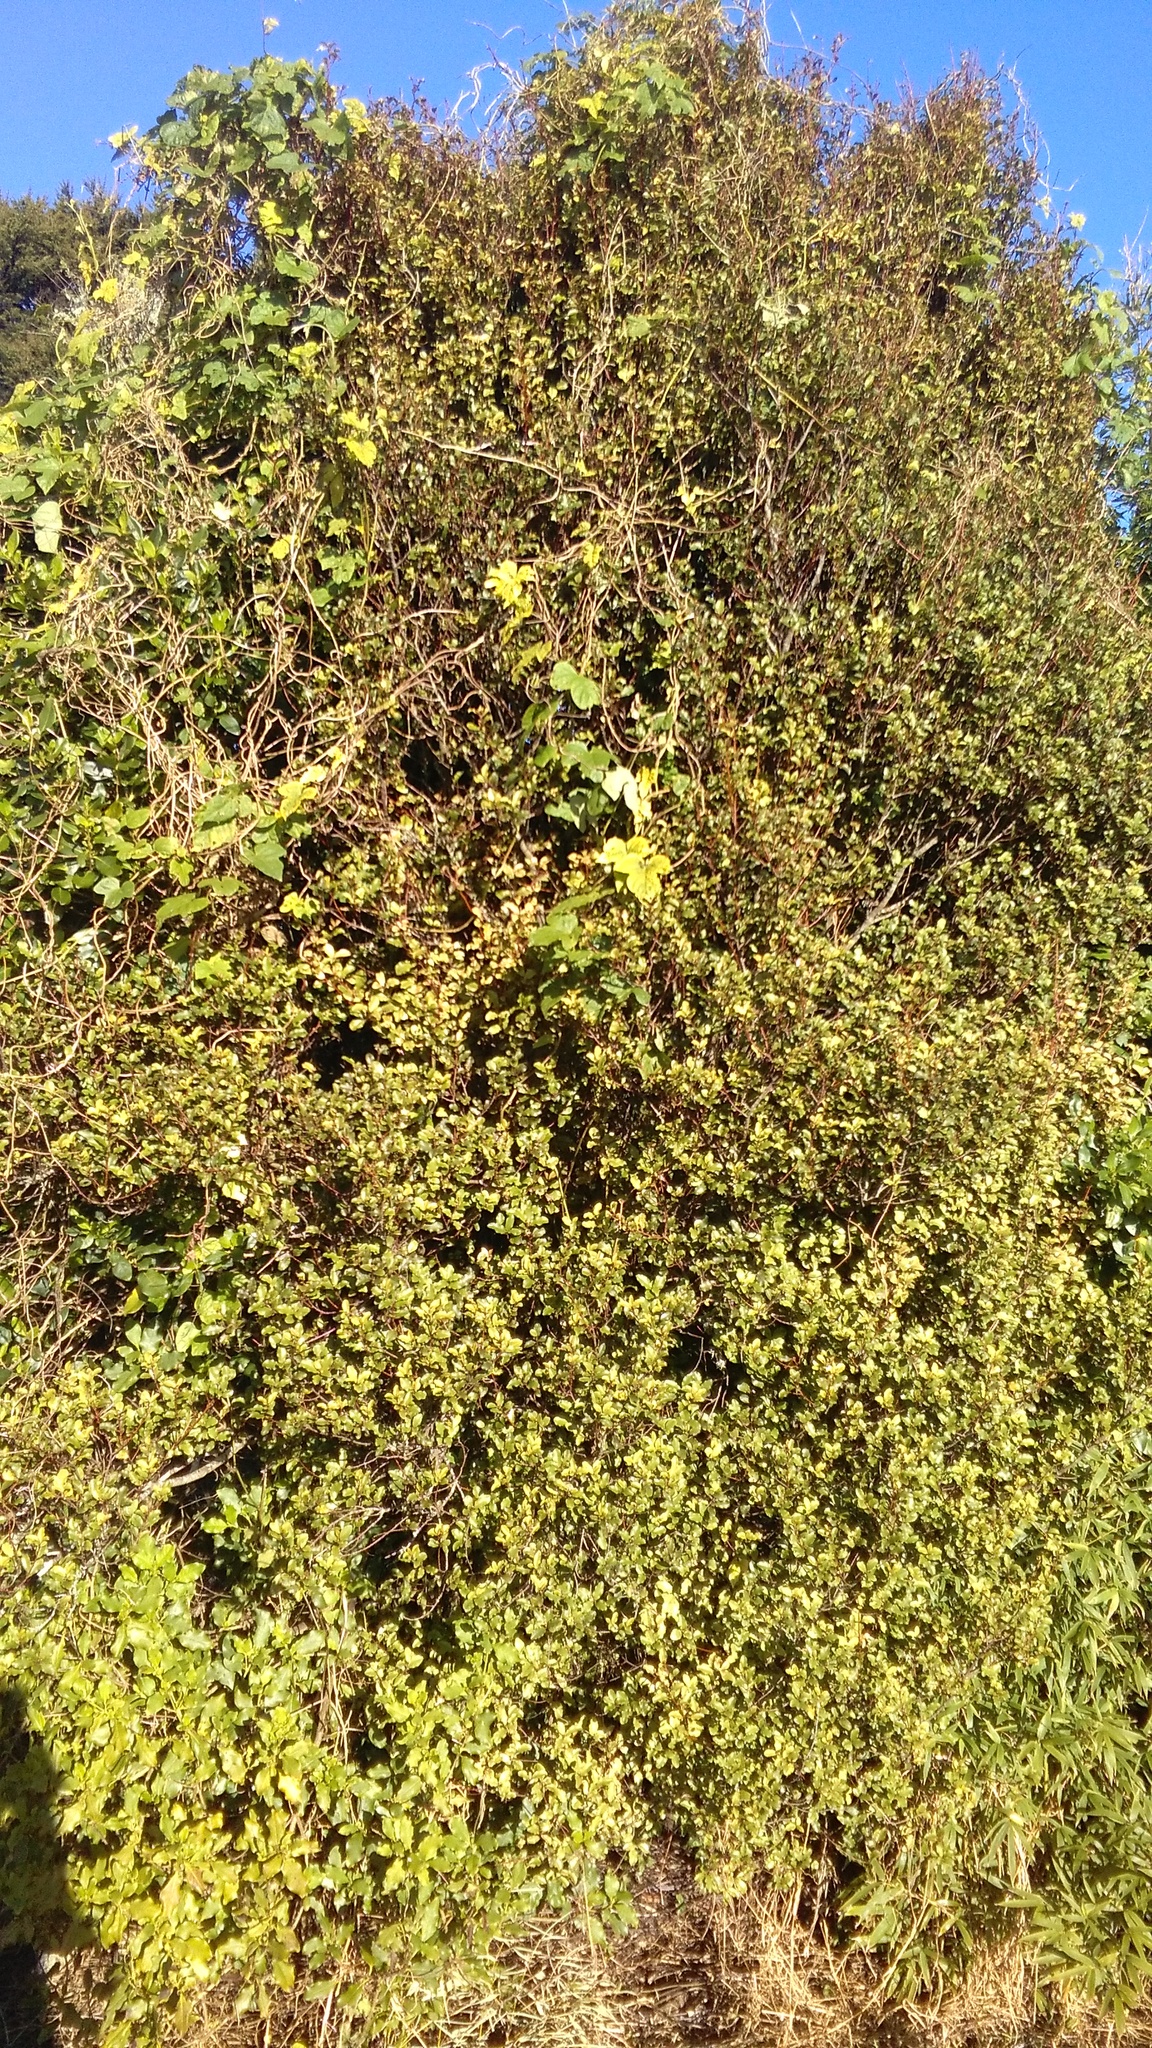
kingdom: Plantae
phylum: Tracheophyta
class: Magnoliopsida
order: Ericales
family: Primulaceae
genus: Myrsine
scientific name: Myrsine australis
